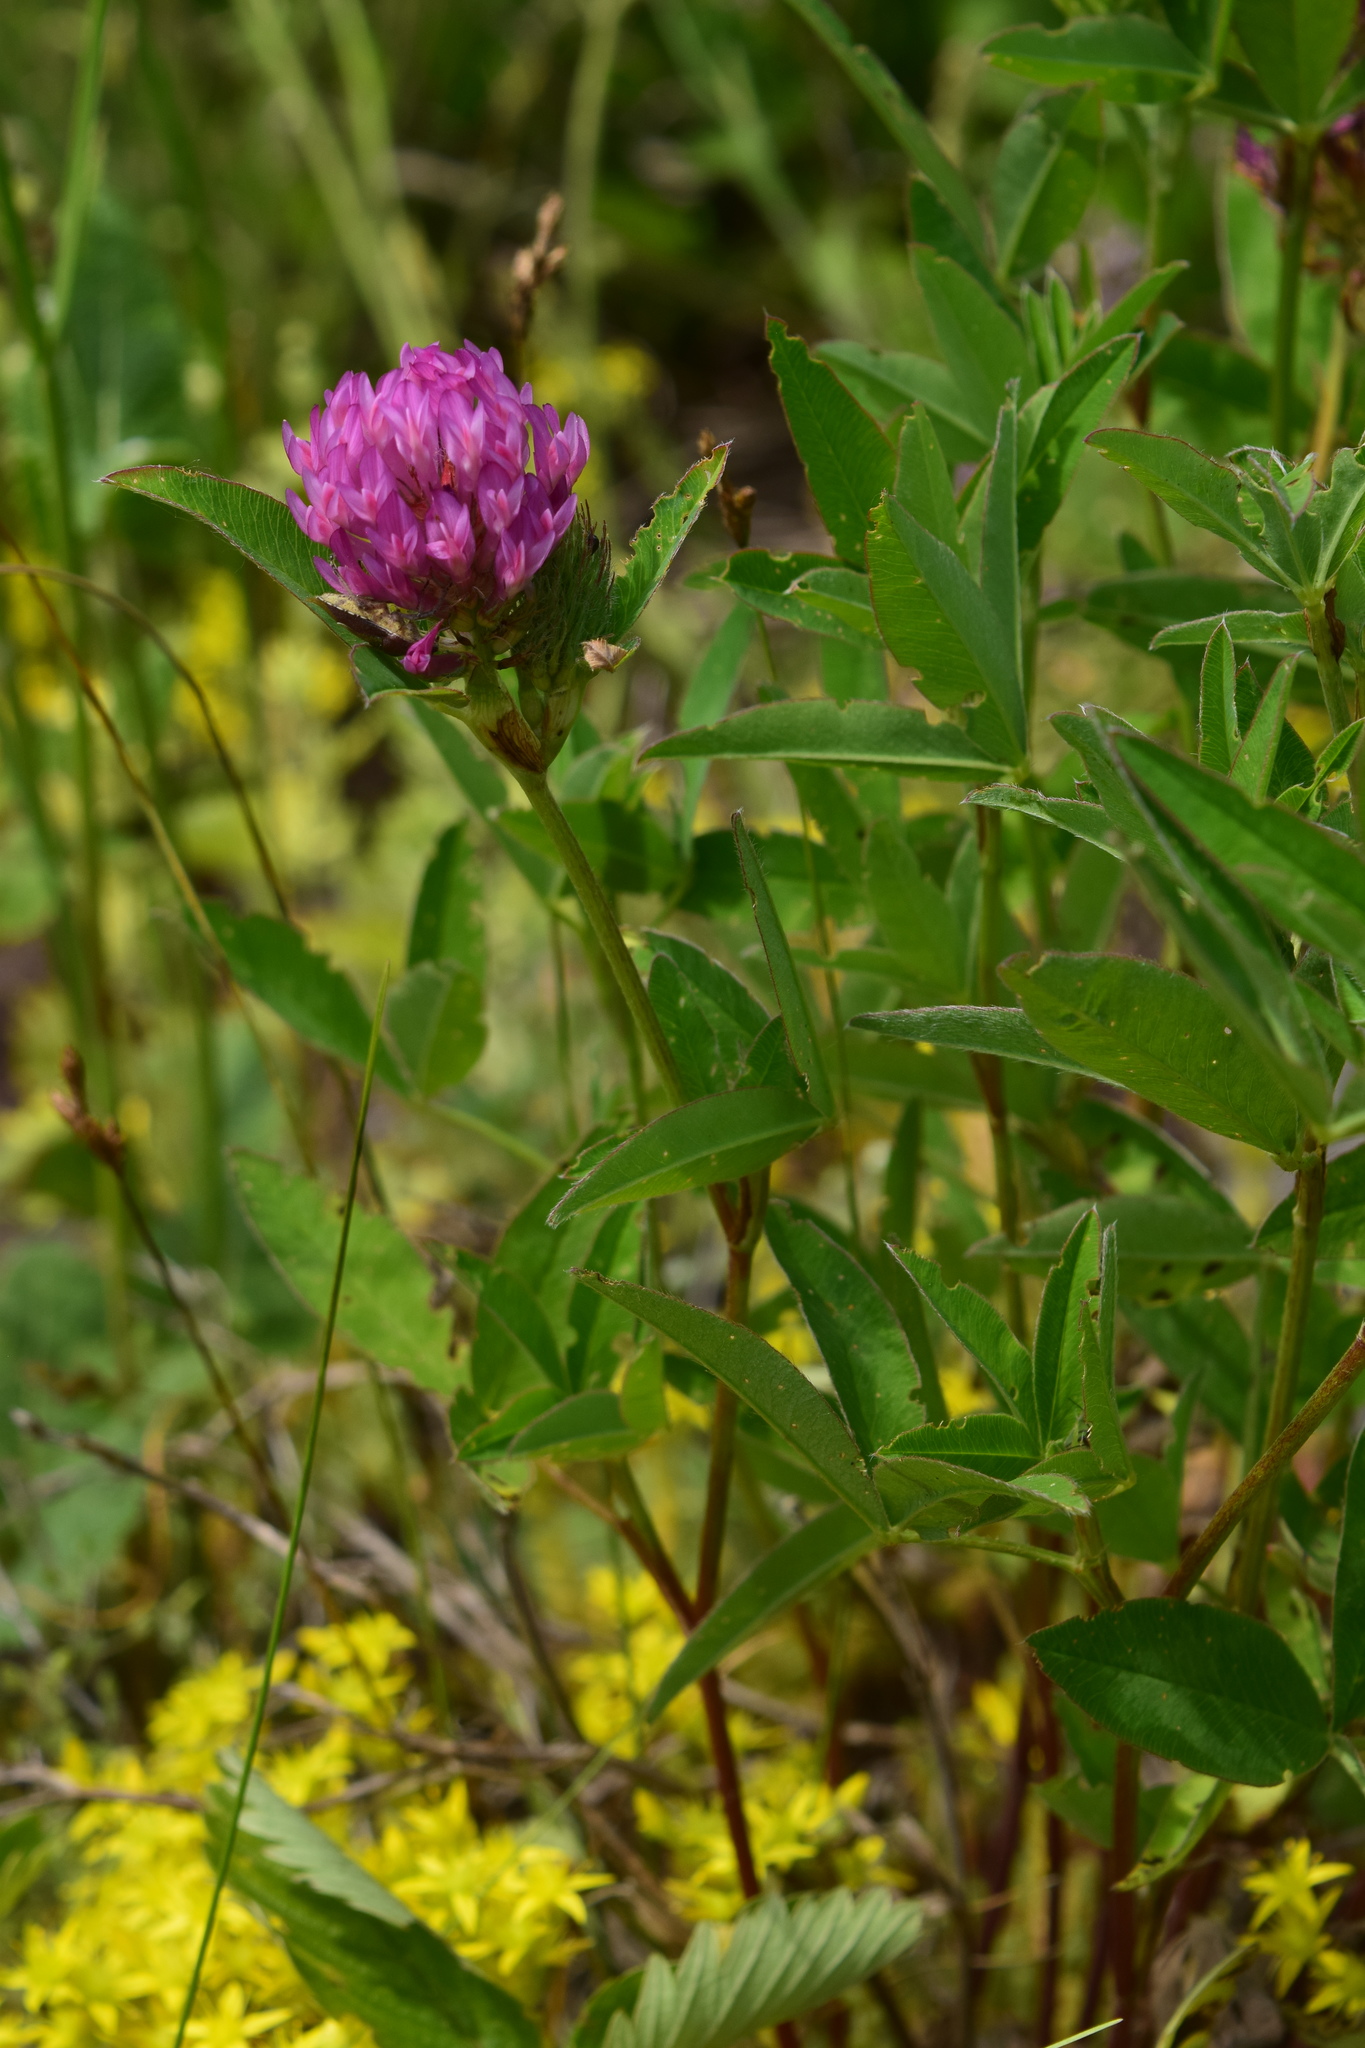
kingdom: Plantae
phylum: Tracheophyta
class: Magnoliopsida
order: Fabales
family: Fabaceae
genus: Trifolium
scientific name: Trifolium pratense
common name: Red clover
